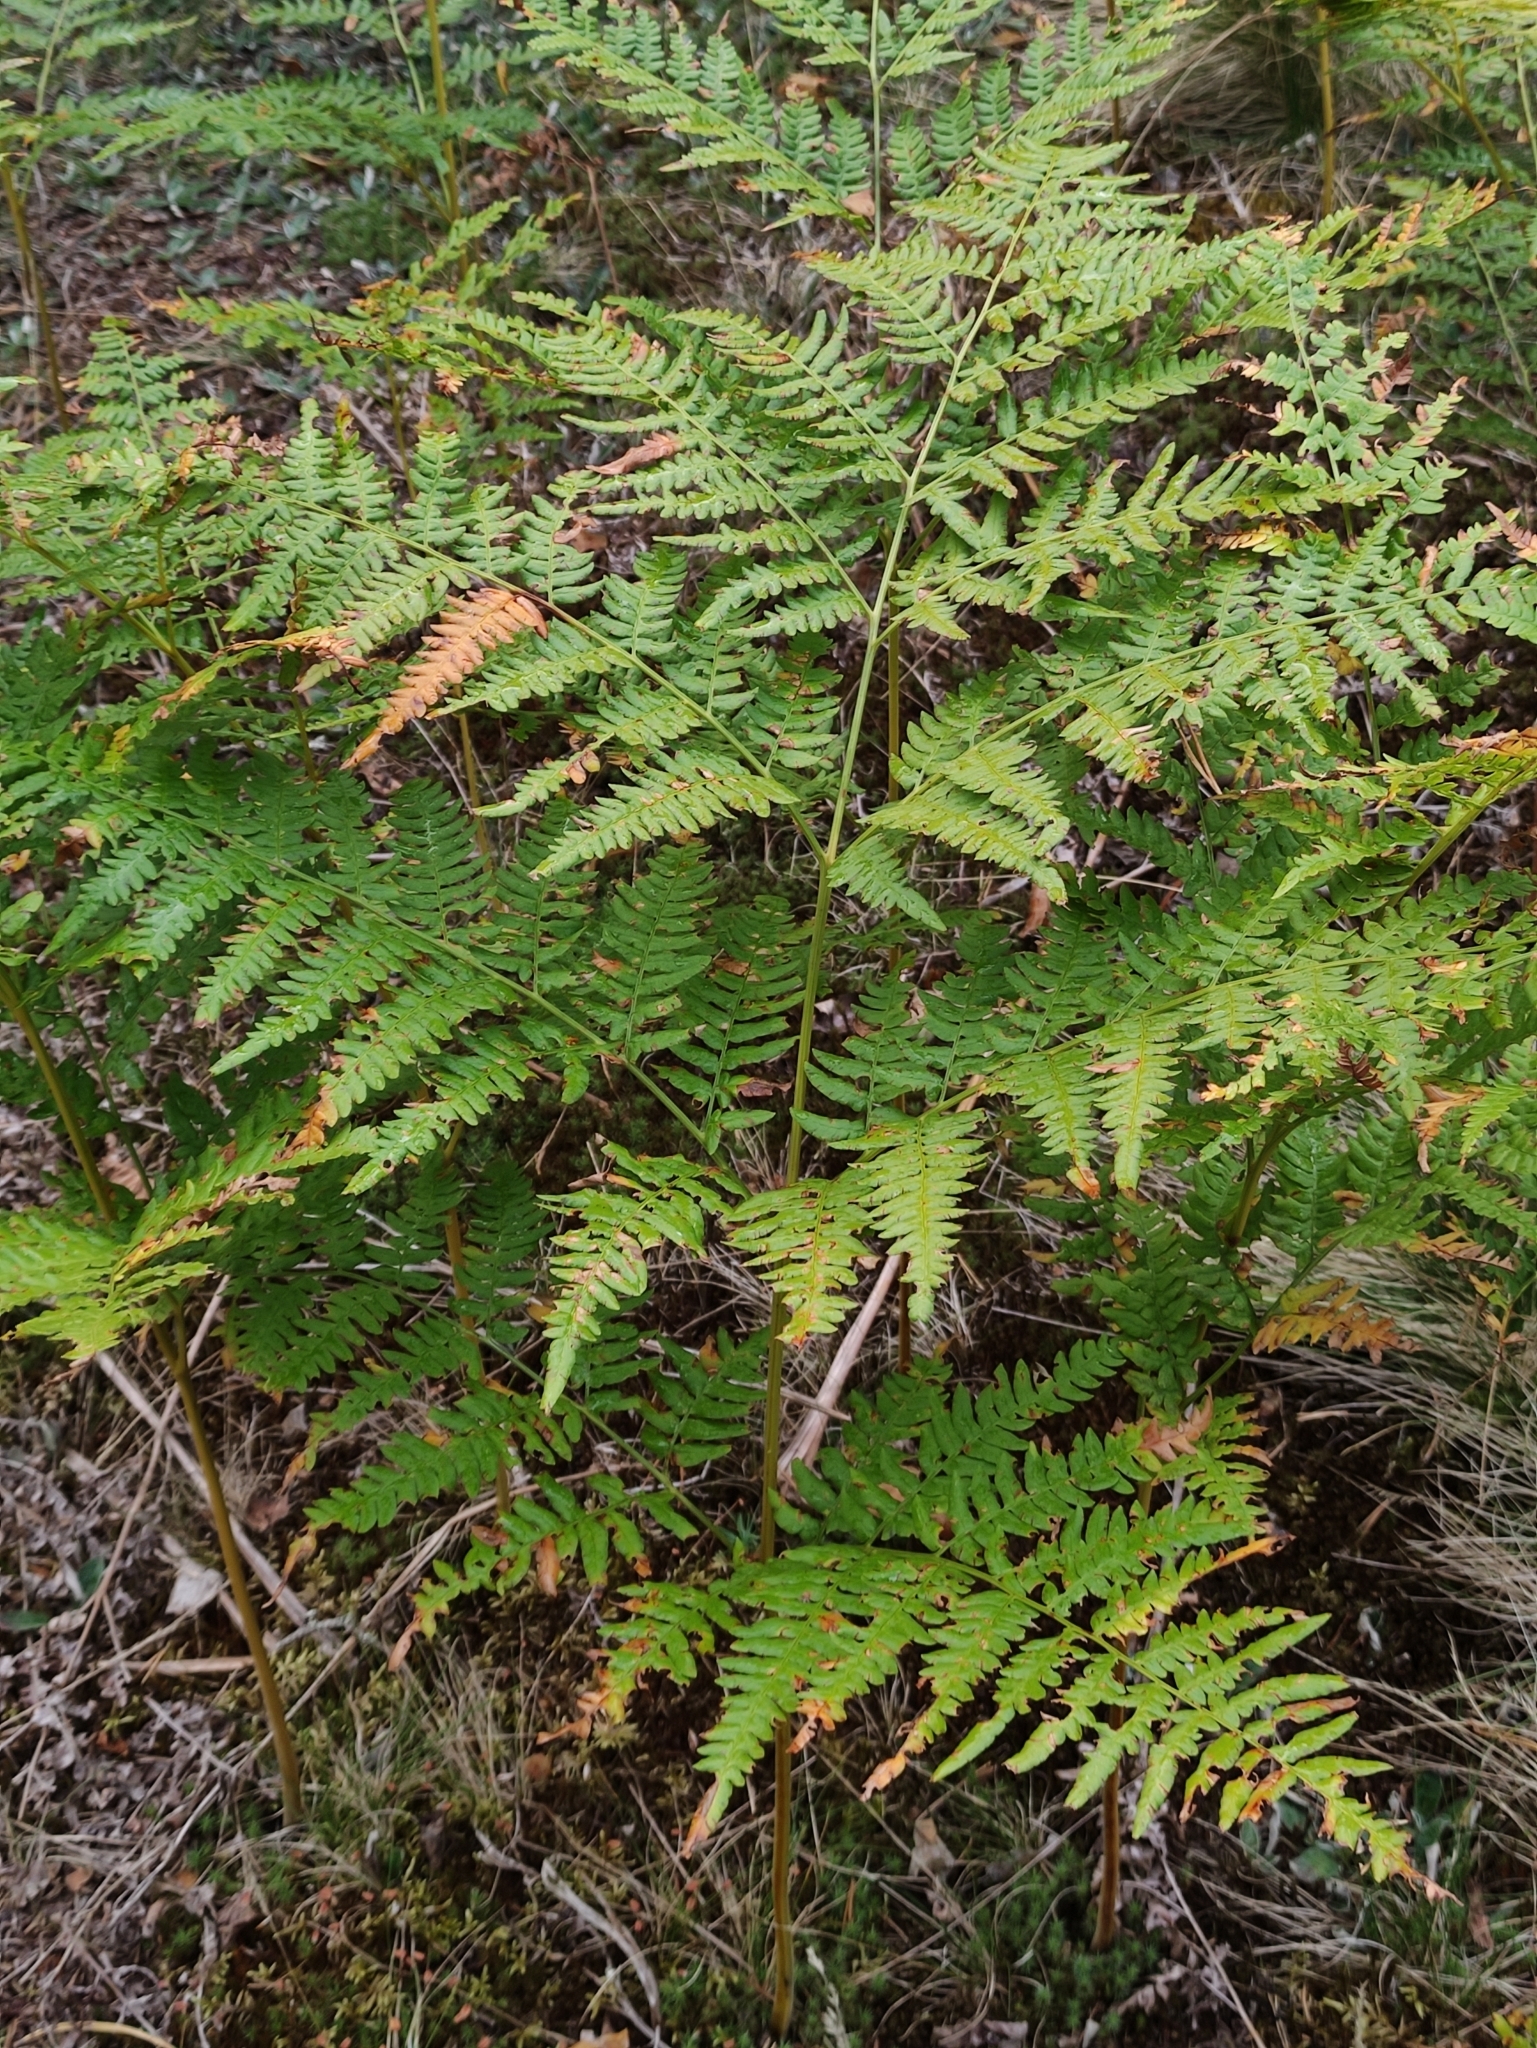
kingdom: Plantae
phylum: Tracheophyta
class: Polypodiopsida
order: Polypodiales
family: Dennstaedtiaceae
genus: Pteridium
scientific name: Pteridium aquilinum
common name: Bracken
